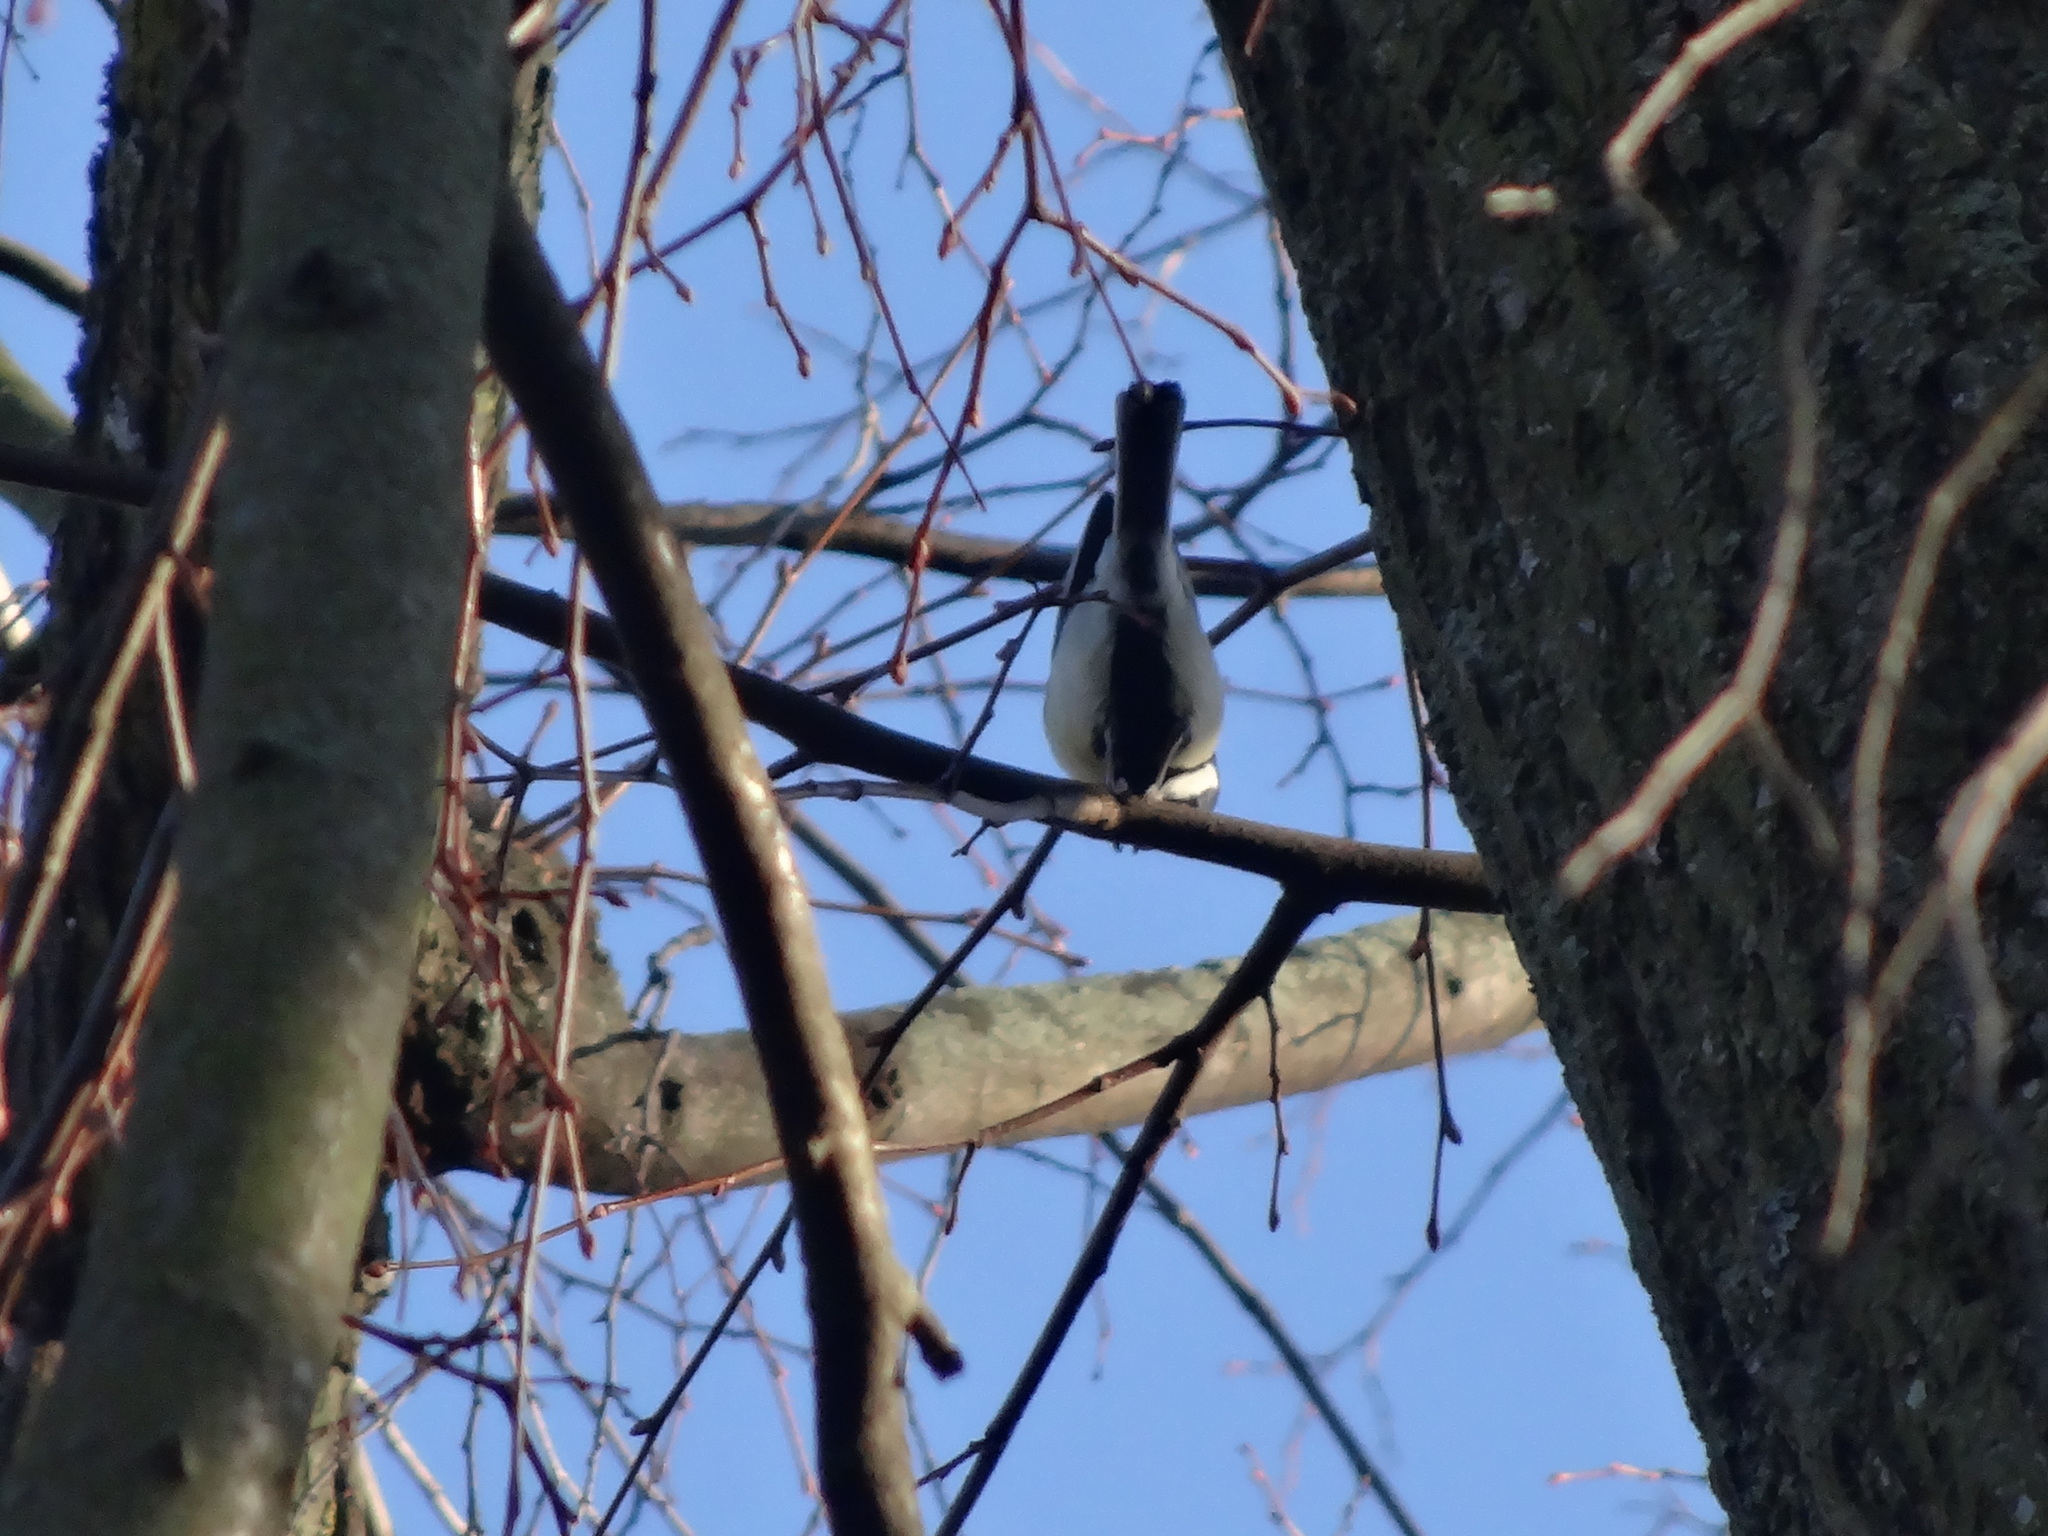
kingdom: Animalia
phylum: Chordata
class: Aves
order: Passeriformes
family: Paridae
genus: Parus
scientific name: Parus major
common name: Great tit
